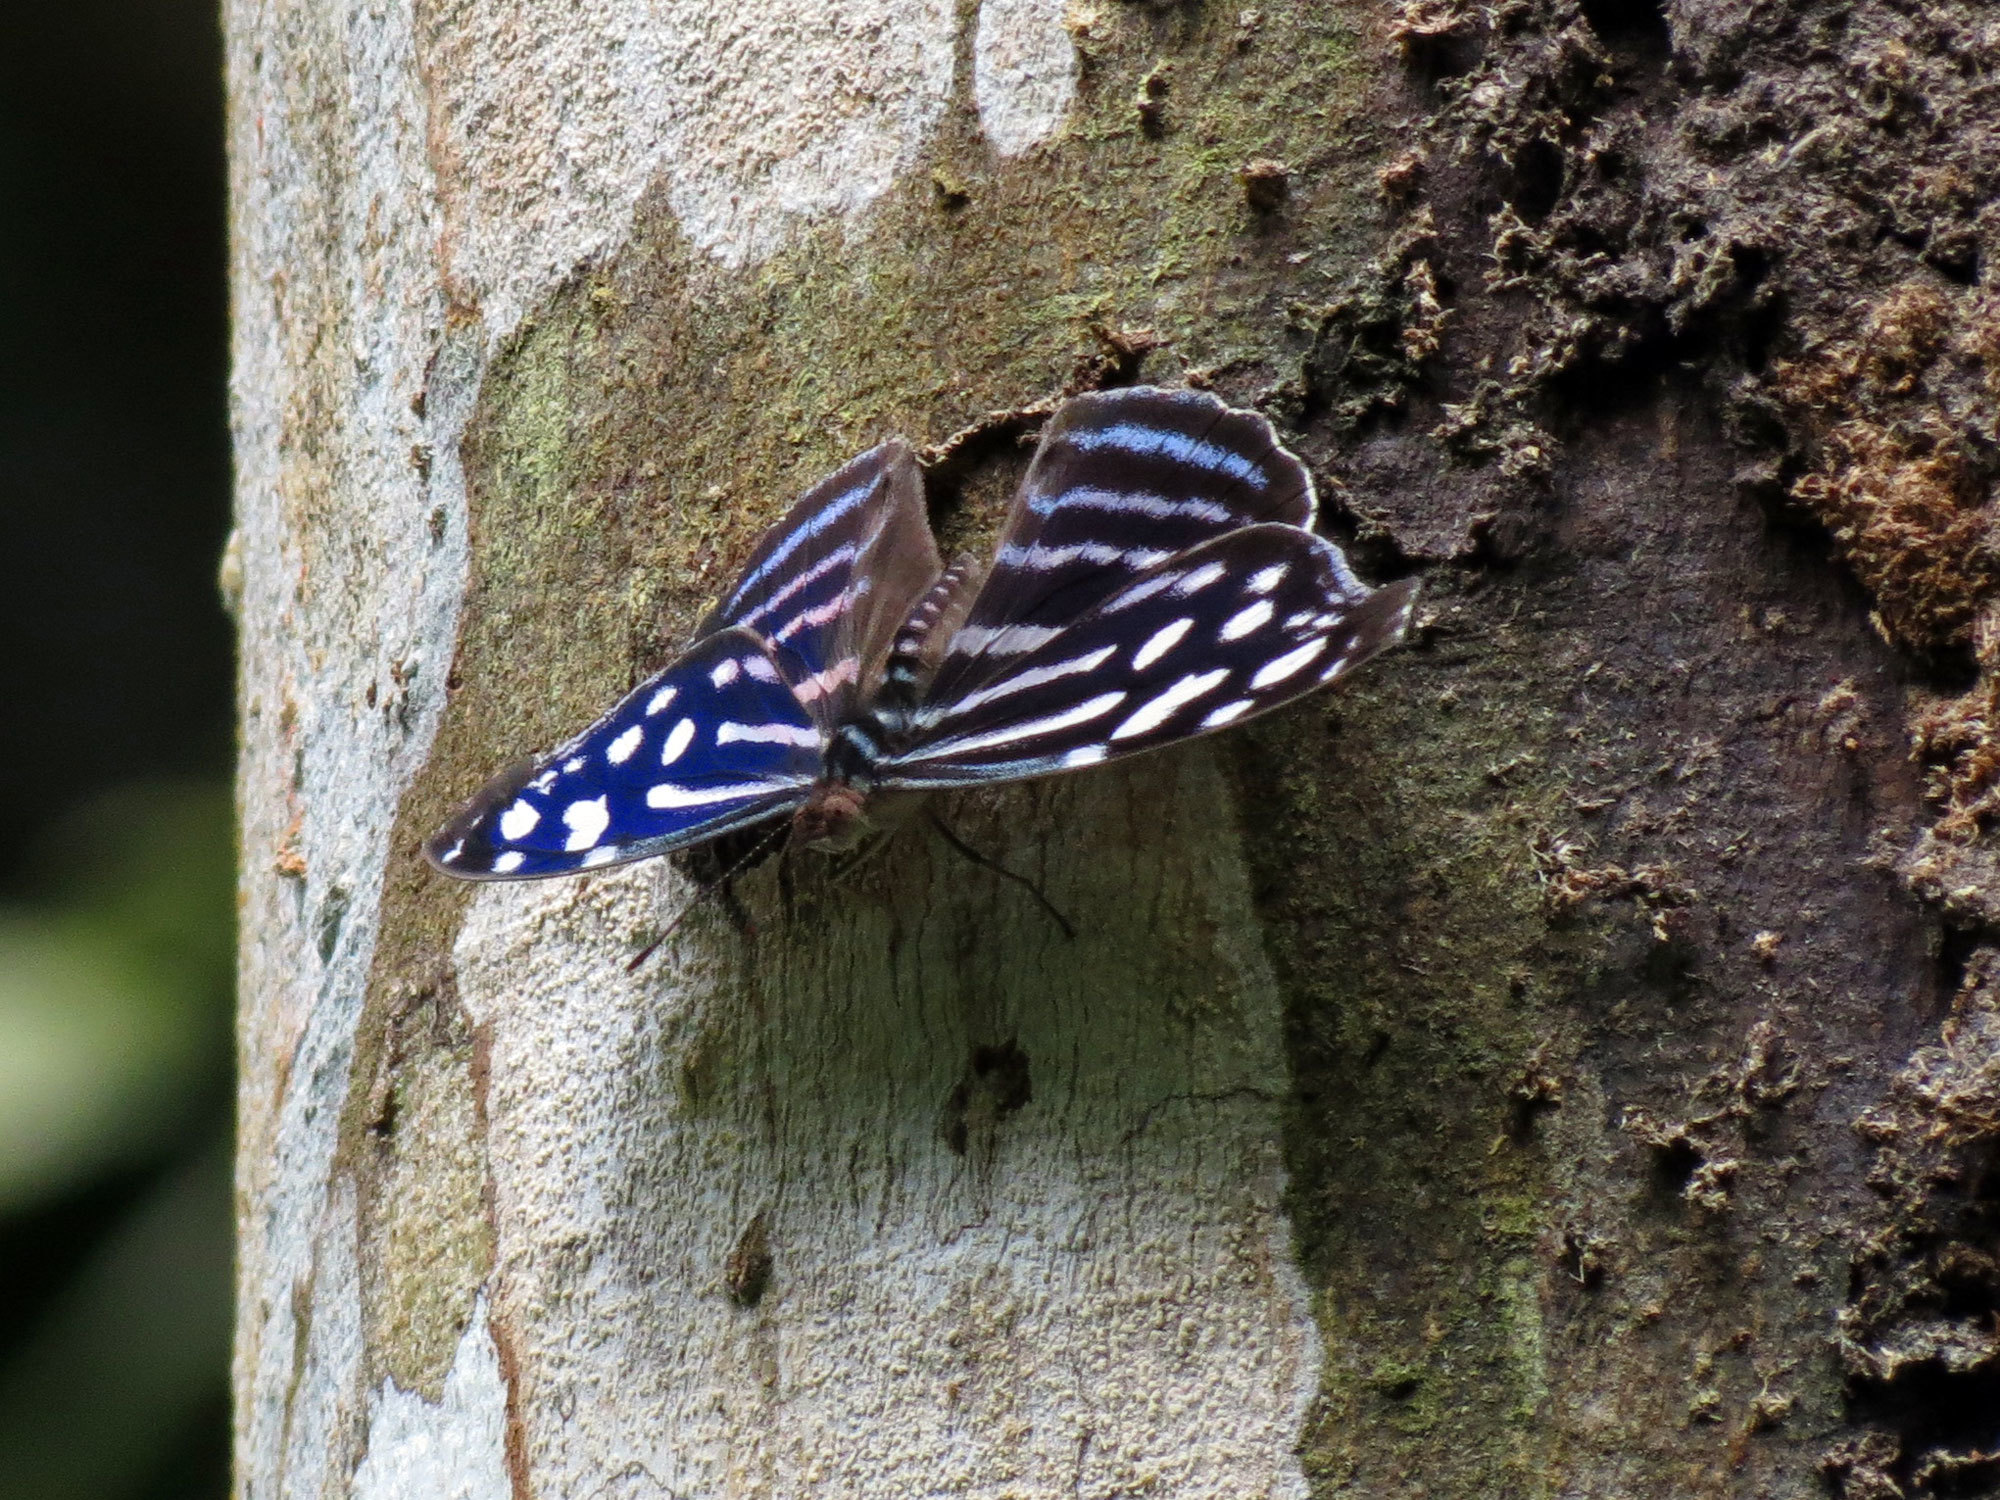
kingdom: Animalia
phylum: Arthropoda
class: Insecta
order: Lepidoptera
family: Nymphalidae
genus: Myscelia
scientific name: Myscelia cyaniris
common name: Whitened bluewing
